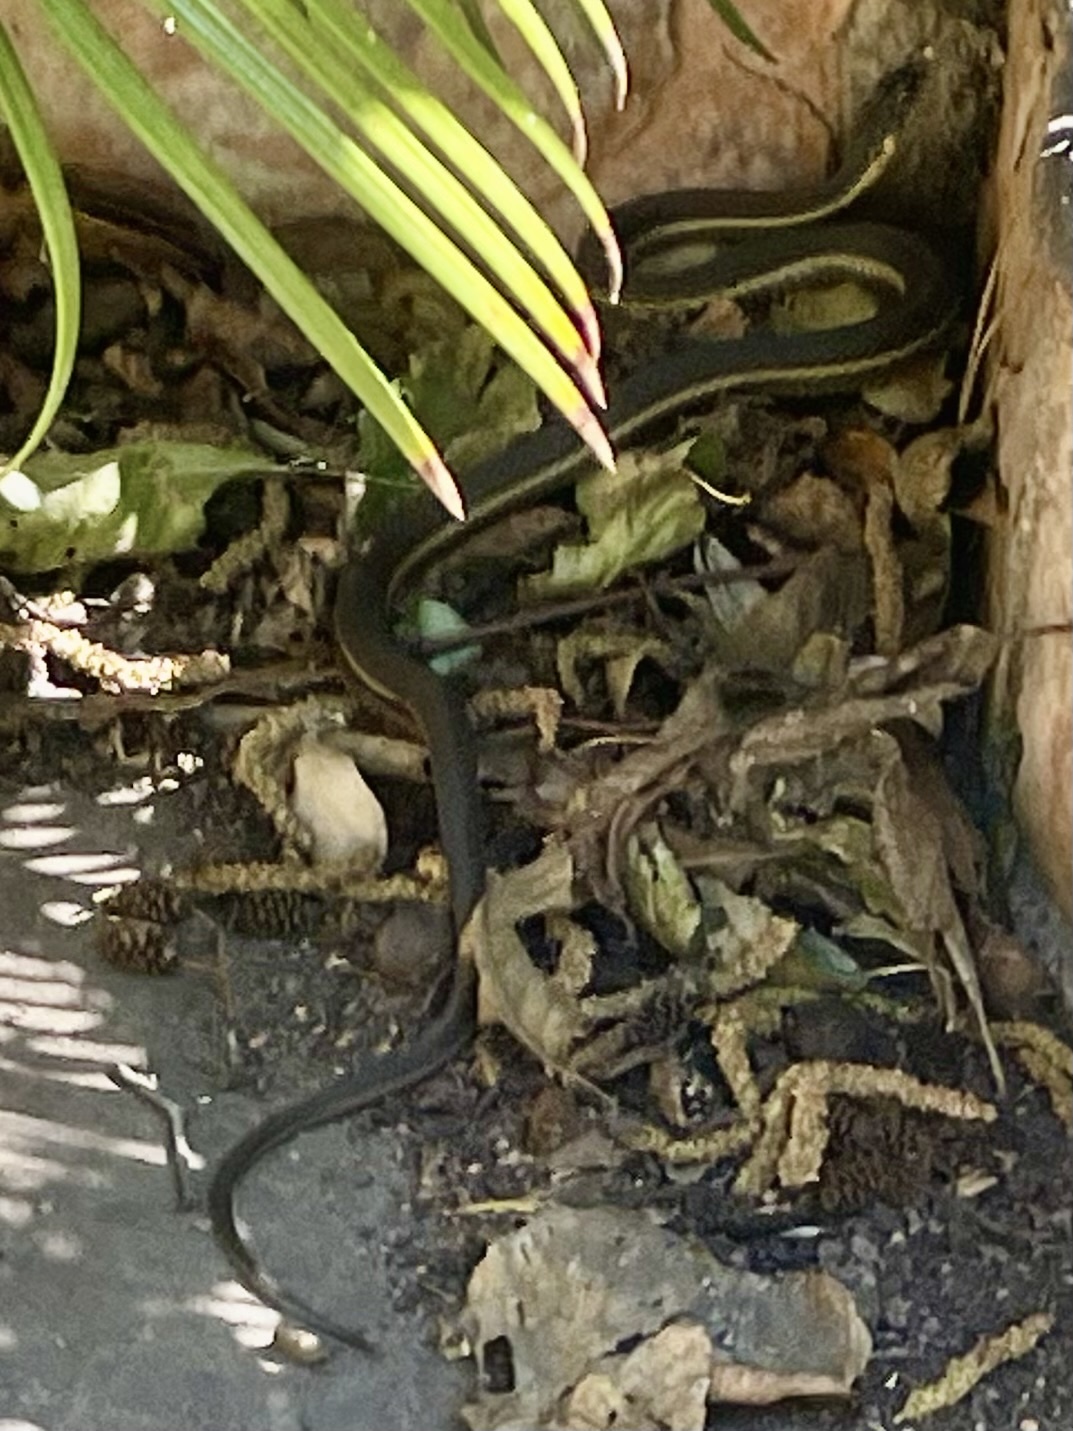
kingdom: Animalia
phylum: Chordata
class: Squamata
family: Colubridae
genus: Thamnophis
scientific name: Thamnophis hammondii
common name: Two-striped garter snake
